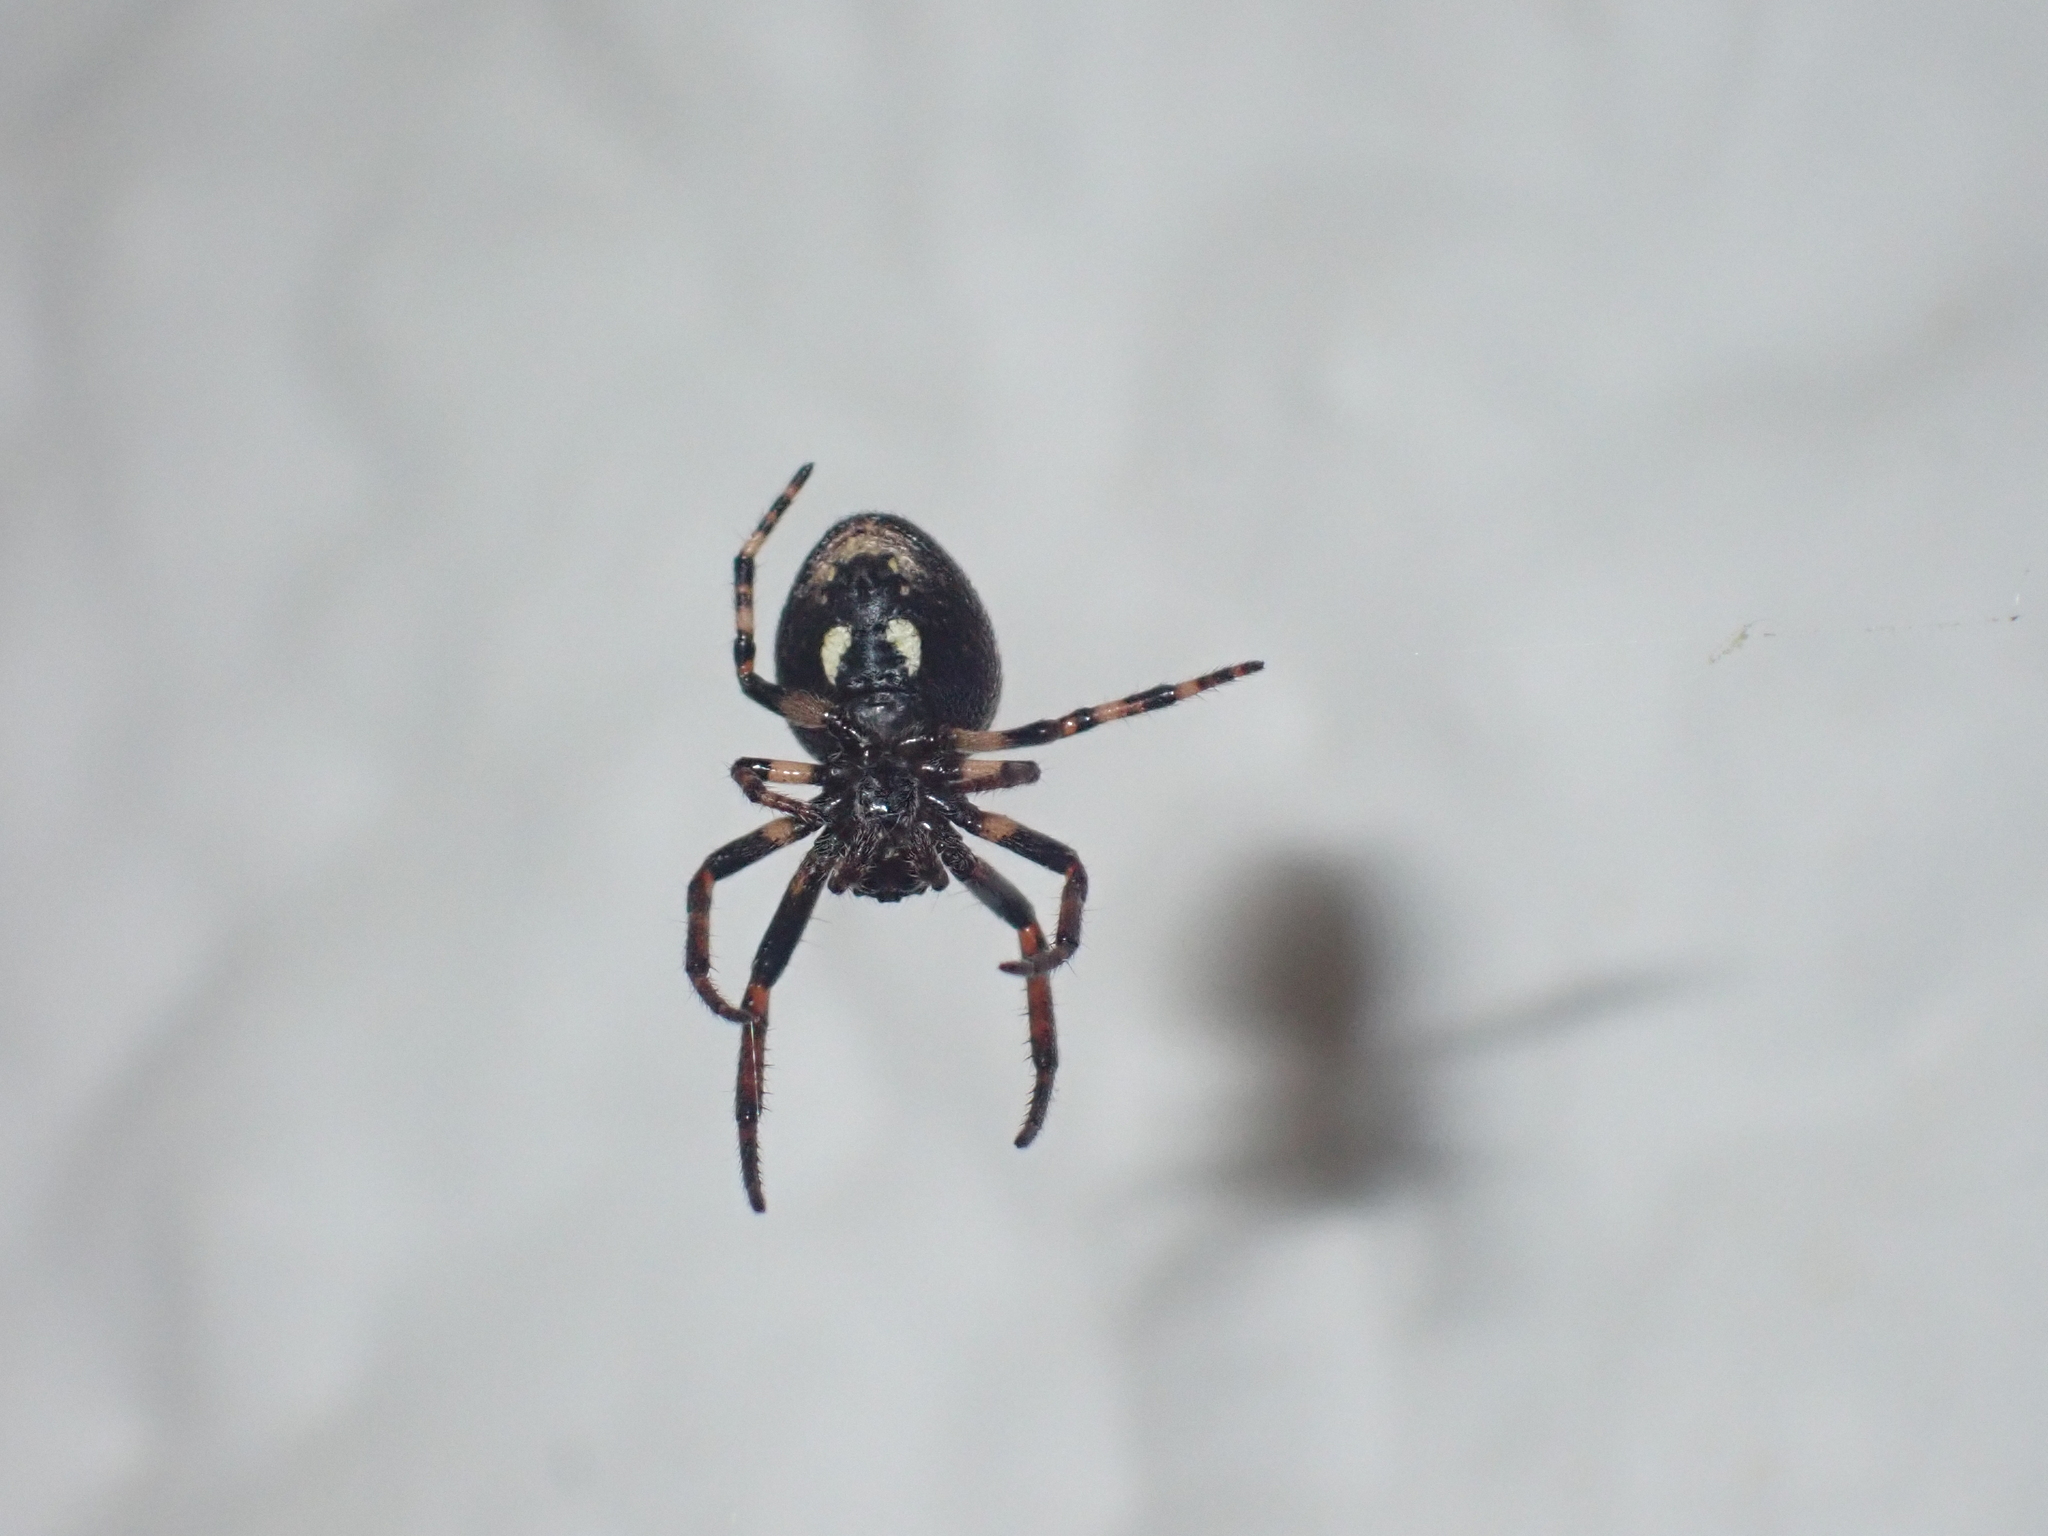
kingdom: Animalia
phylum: Arthropoda
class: Arachnida
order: Araneae
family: Araneidae
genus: Nuctenea
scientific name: Nuctenea umbratica
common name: Toad spider
